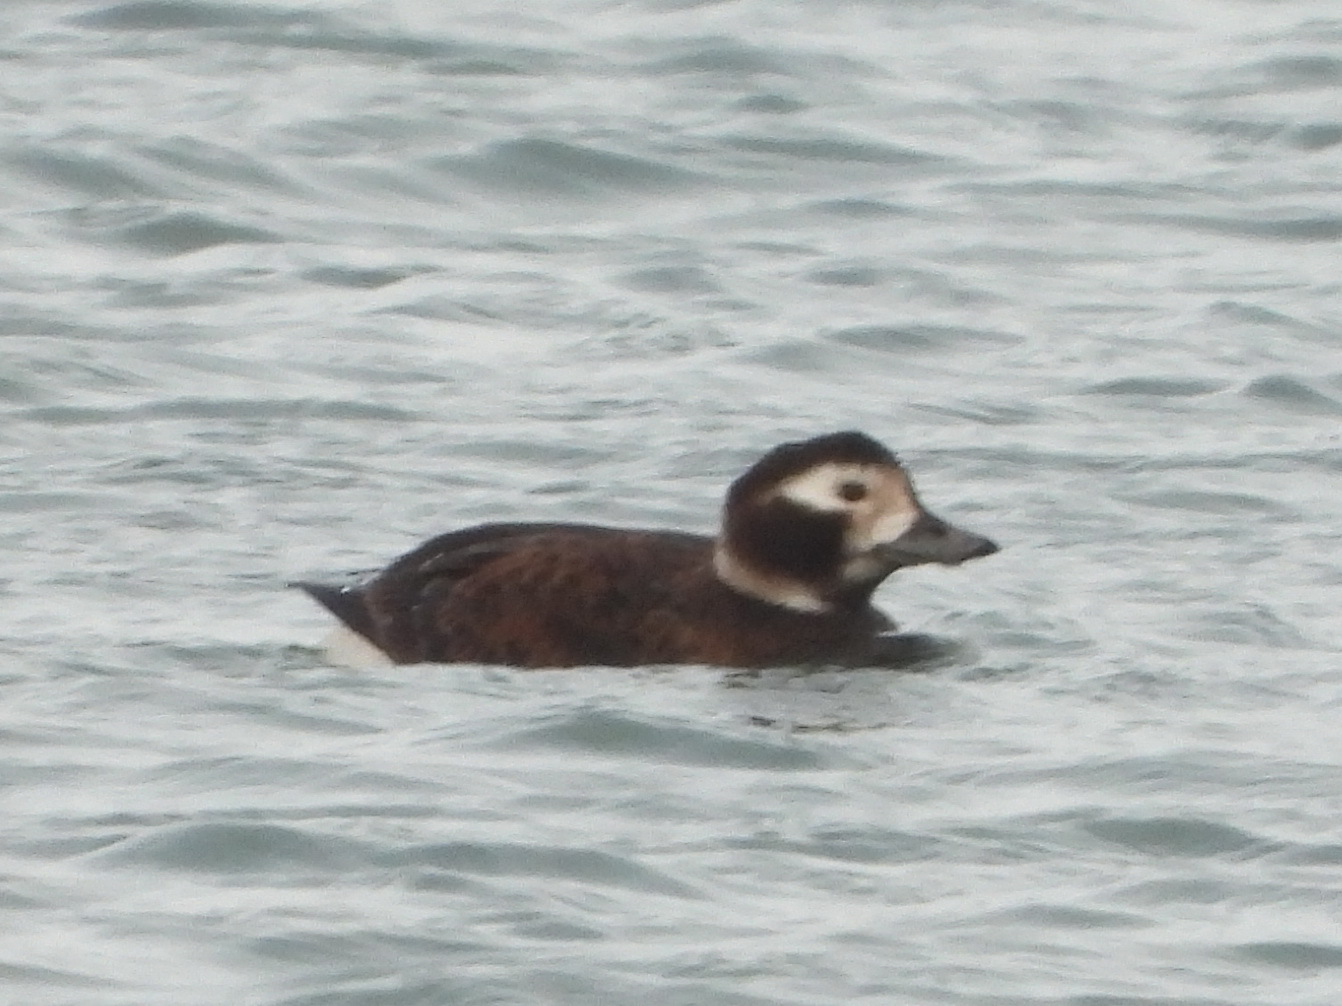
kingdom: Animalia
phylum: Chordata
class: Aves
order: Anseriformes
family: Anatidae
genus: Clangula
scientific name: Clangula hyemalis
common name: Long-tailed duck
